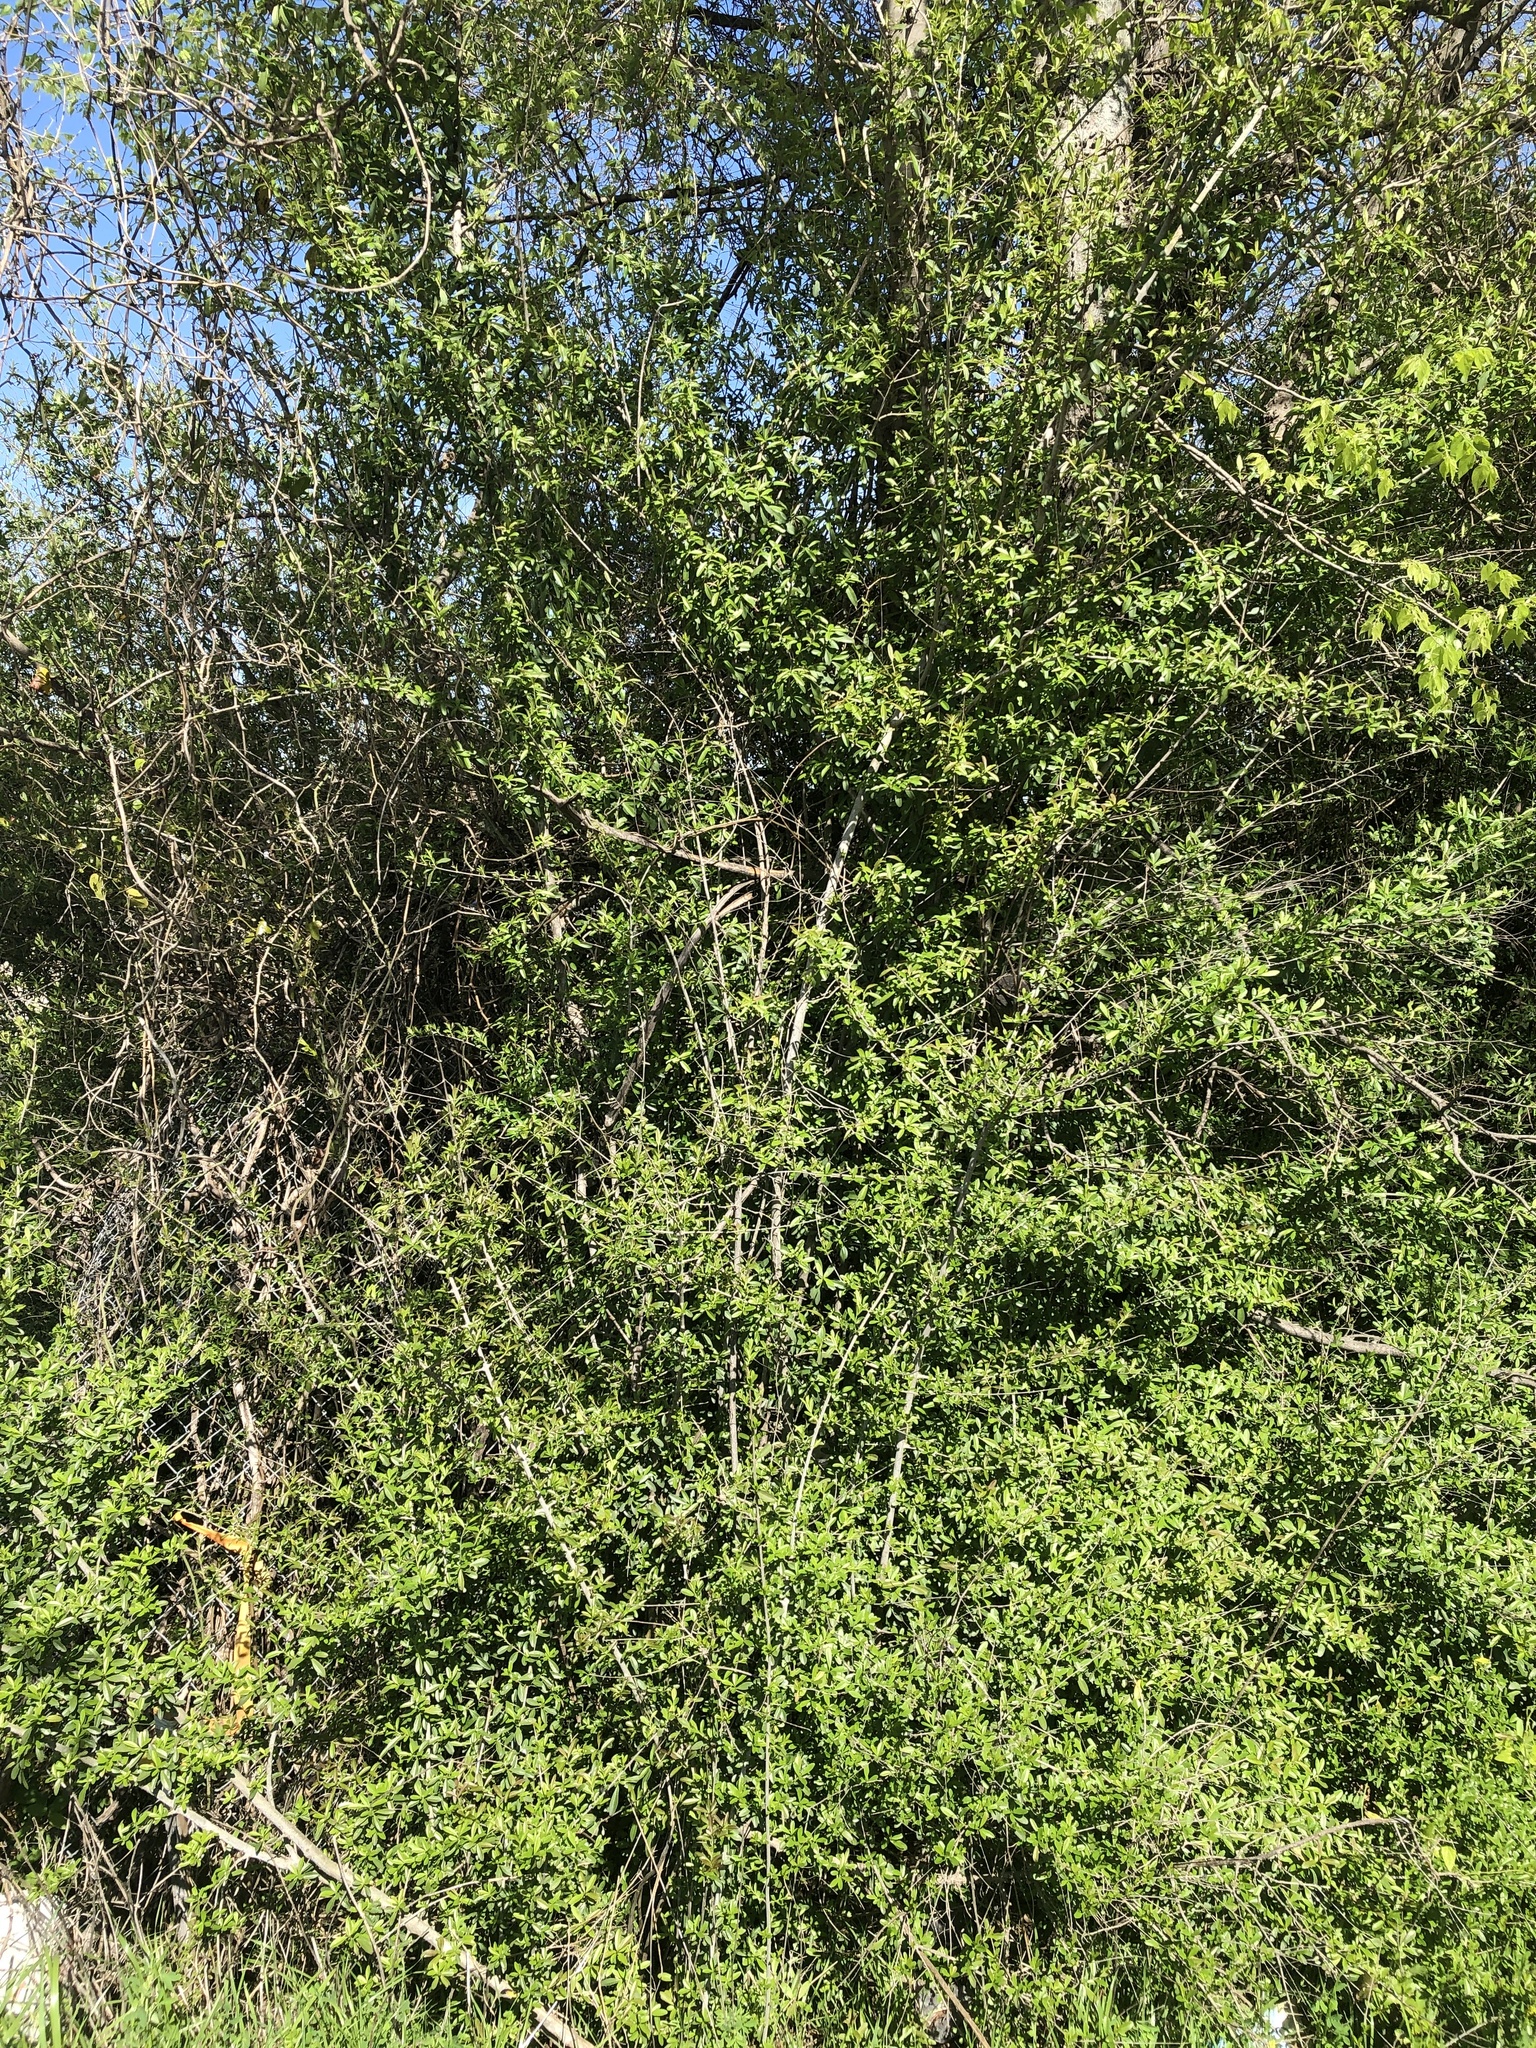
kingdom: Plantae
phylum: Tracheophyta
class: Magnoliopsida
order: Lamiales
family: Oleaceae
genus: Ligustrum
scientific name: Ligustrum quihoui
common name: Waxyleaf privet
